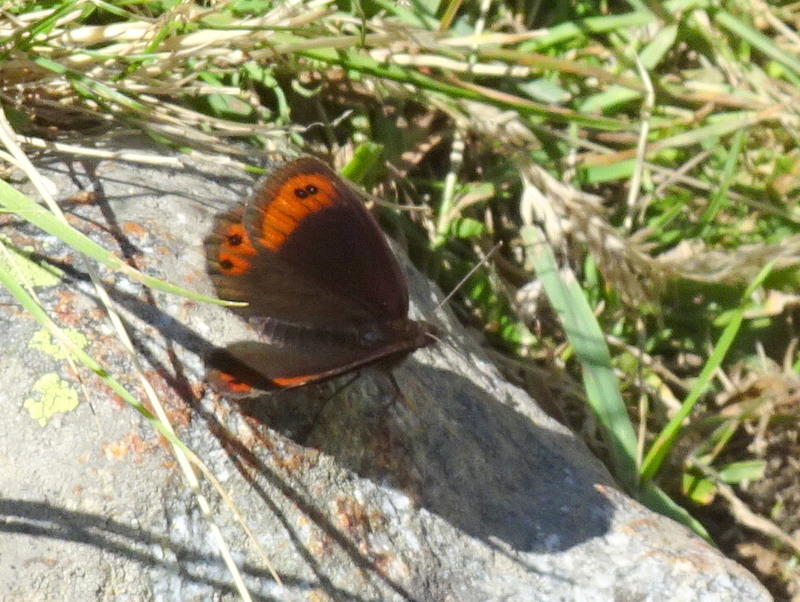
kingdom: Animalia
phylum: Arthropoda
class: Insecta
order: Lepidoptera
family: Nymphalidae
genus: Erebia
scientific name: Erebia montanus
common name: Marbled ringlet
